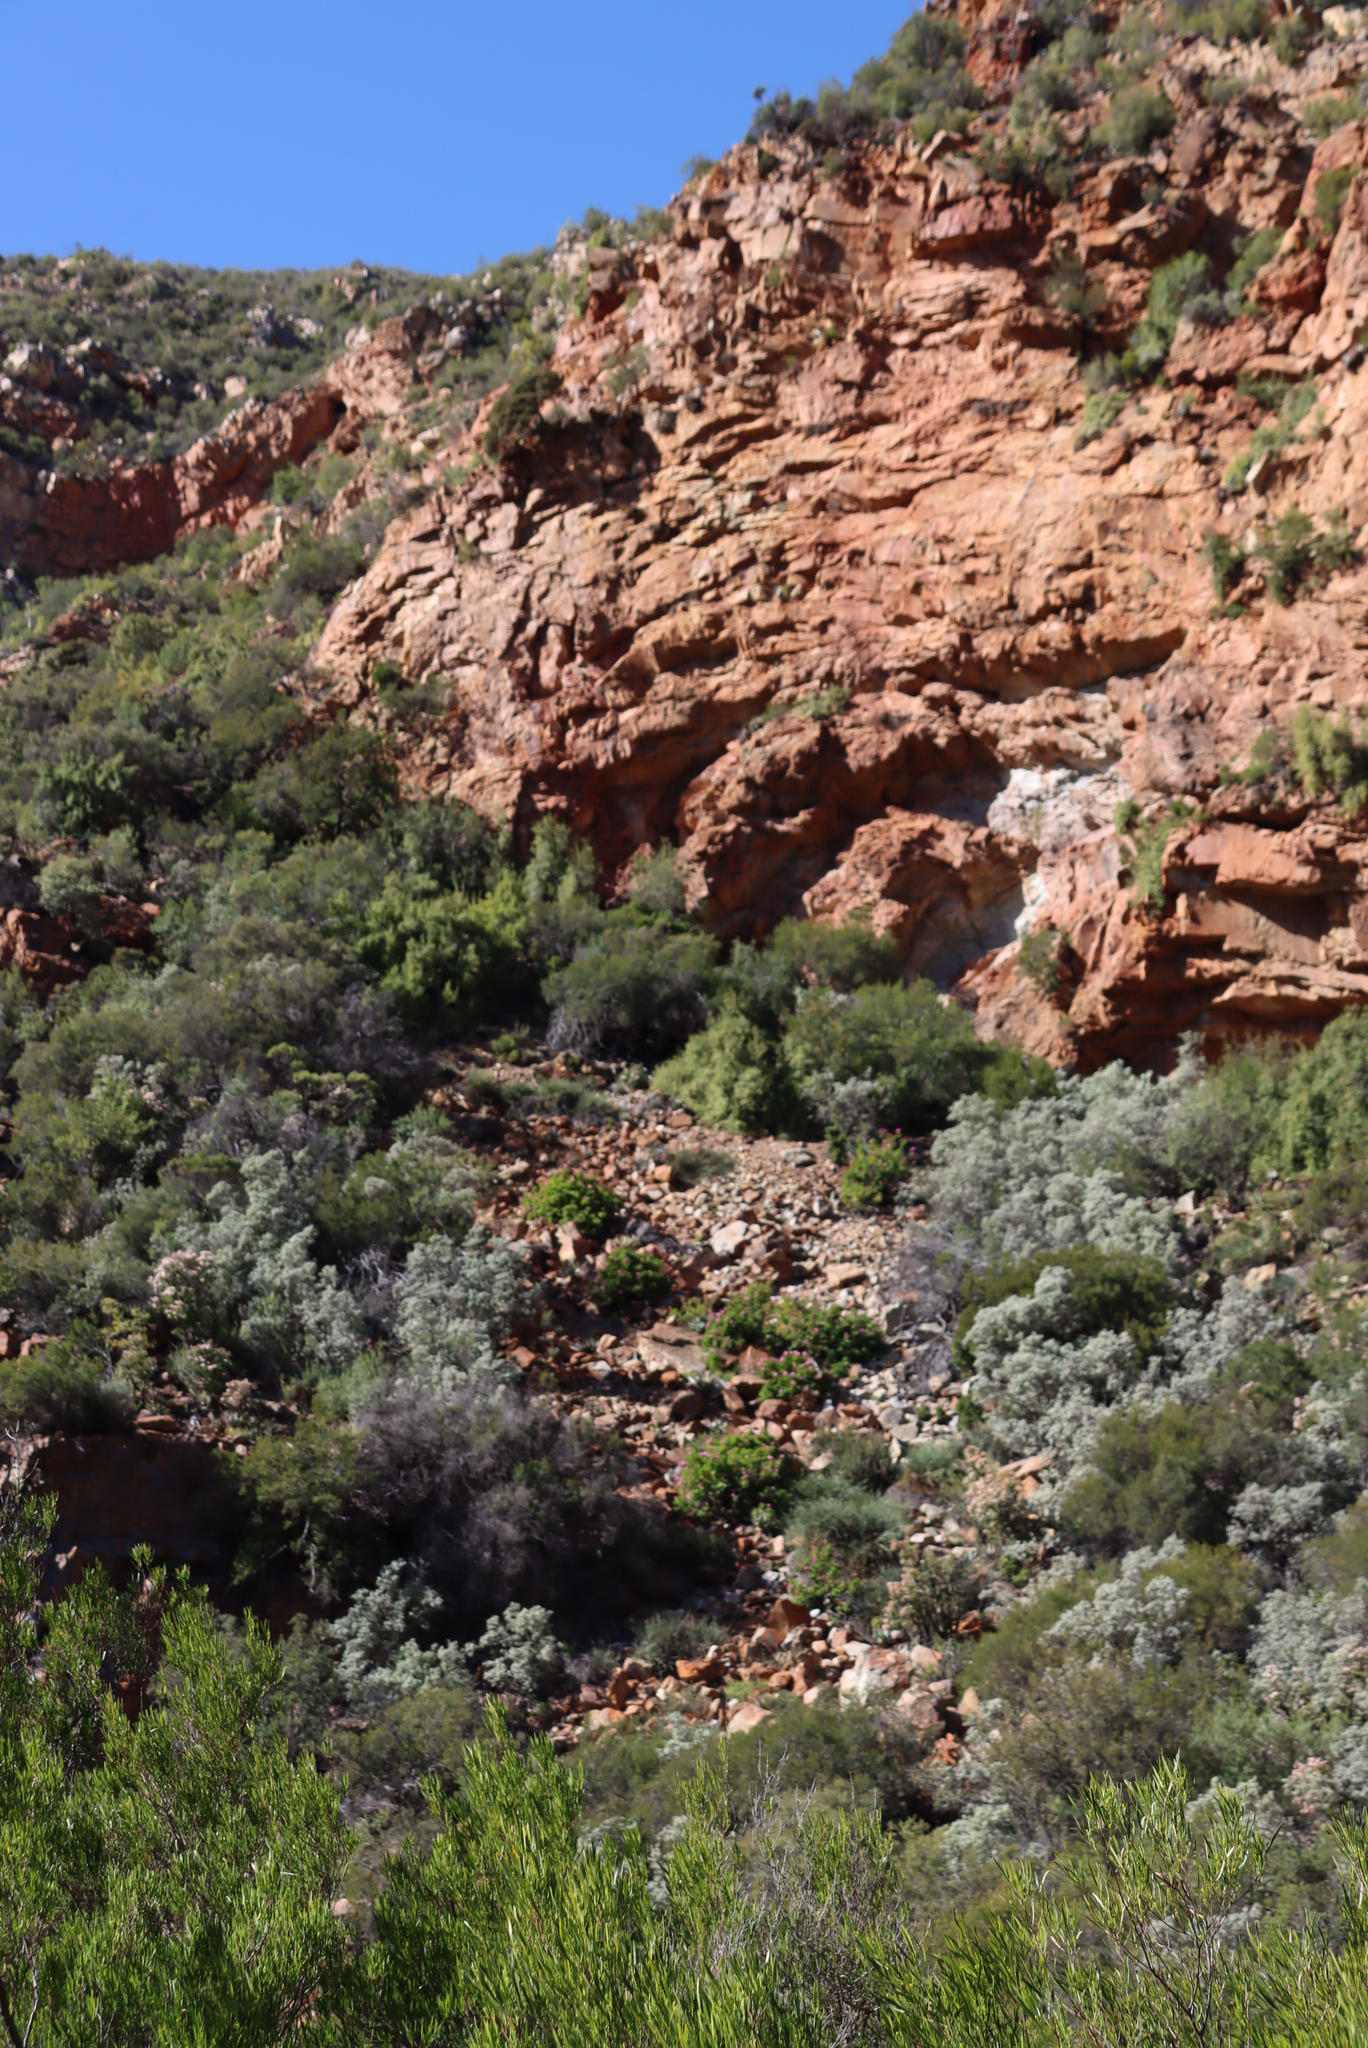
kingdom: Plantae
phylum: Tracheophyta
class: Magnoliopsida
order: Geraniales
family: Geraniaceae
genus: Pelargonium
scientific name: Pelargonium zonale
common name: Horseshoe geranium
